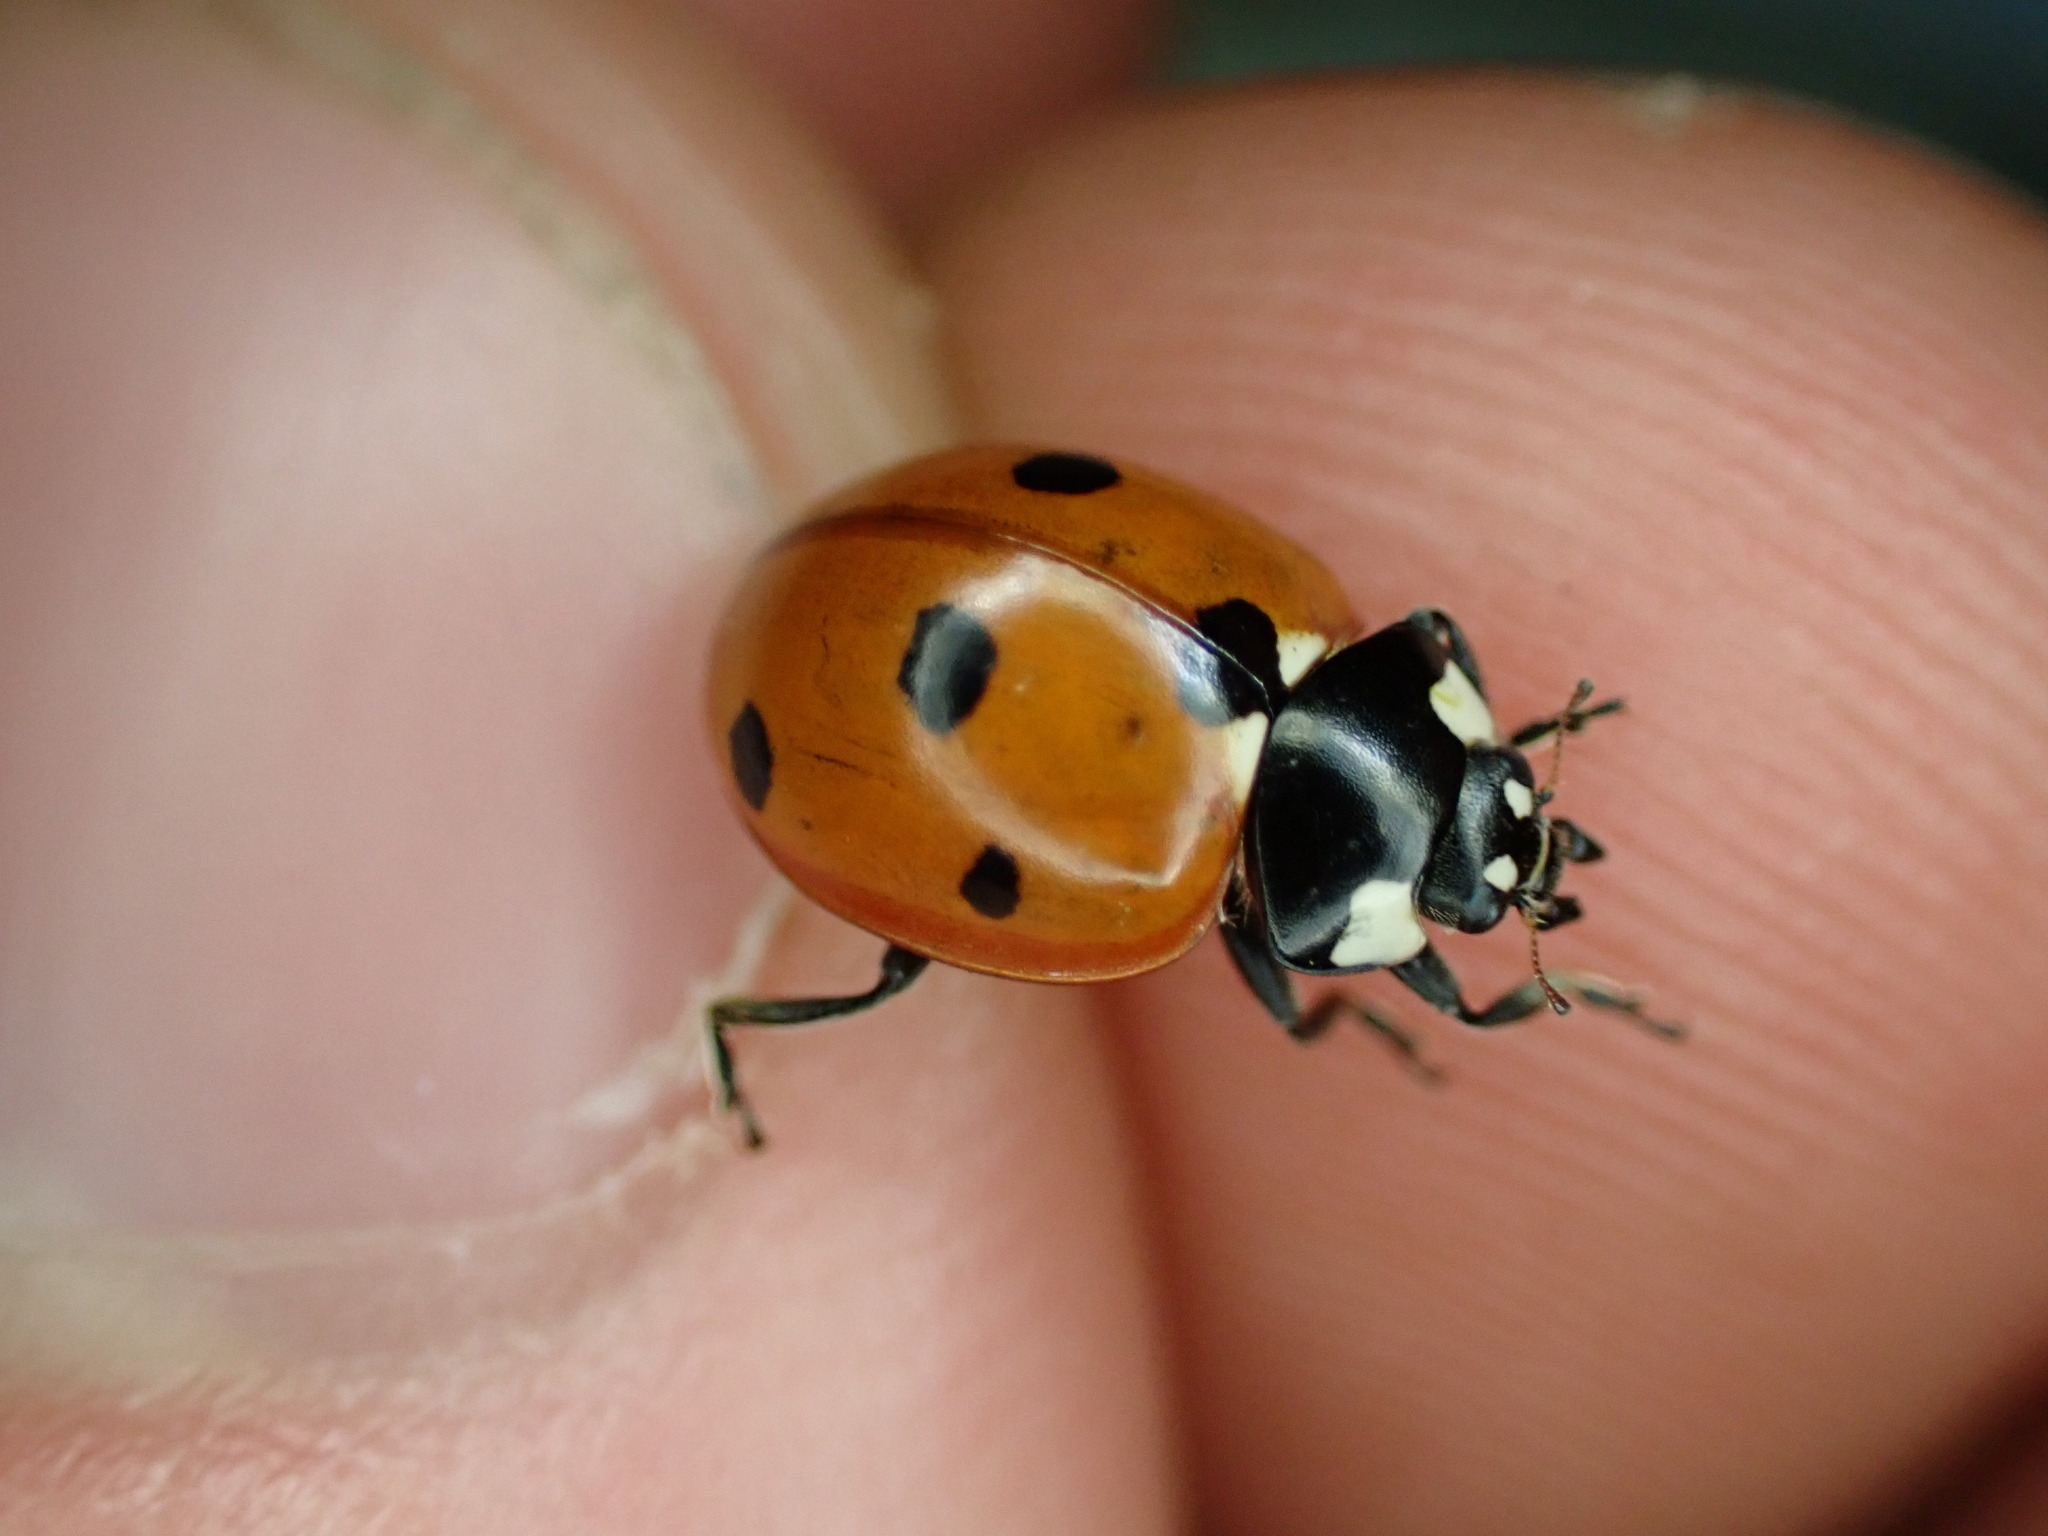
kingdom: Animalia
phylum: Arthropoda
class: Insecta
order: Coleoptera
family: Coccinellidae
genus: Coccinella
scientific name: Coccinella septempunctata
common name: Sevenspotted lady beetle
